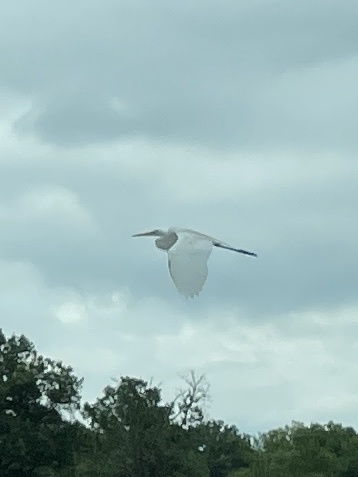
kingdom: Animalia
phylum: Chordata
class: Aves
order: Pelecaniformes
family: Ardeidae
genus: Ardea
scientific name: Ardea alba
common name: Great egret
